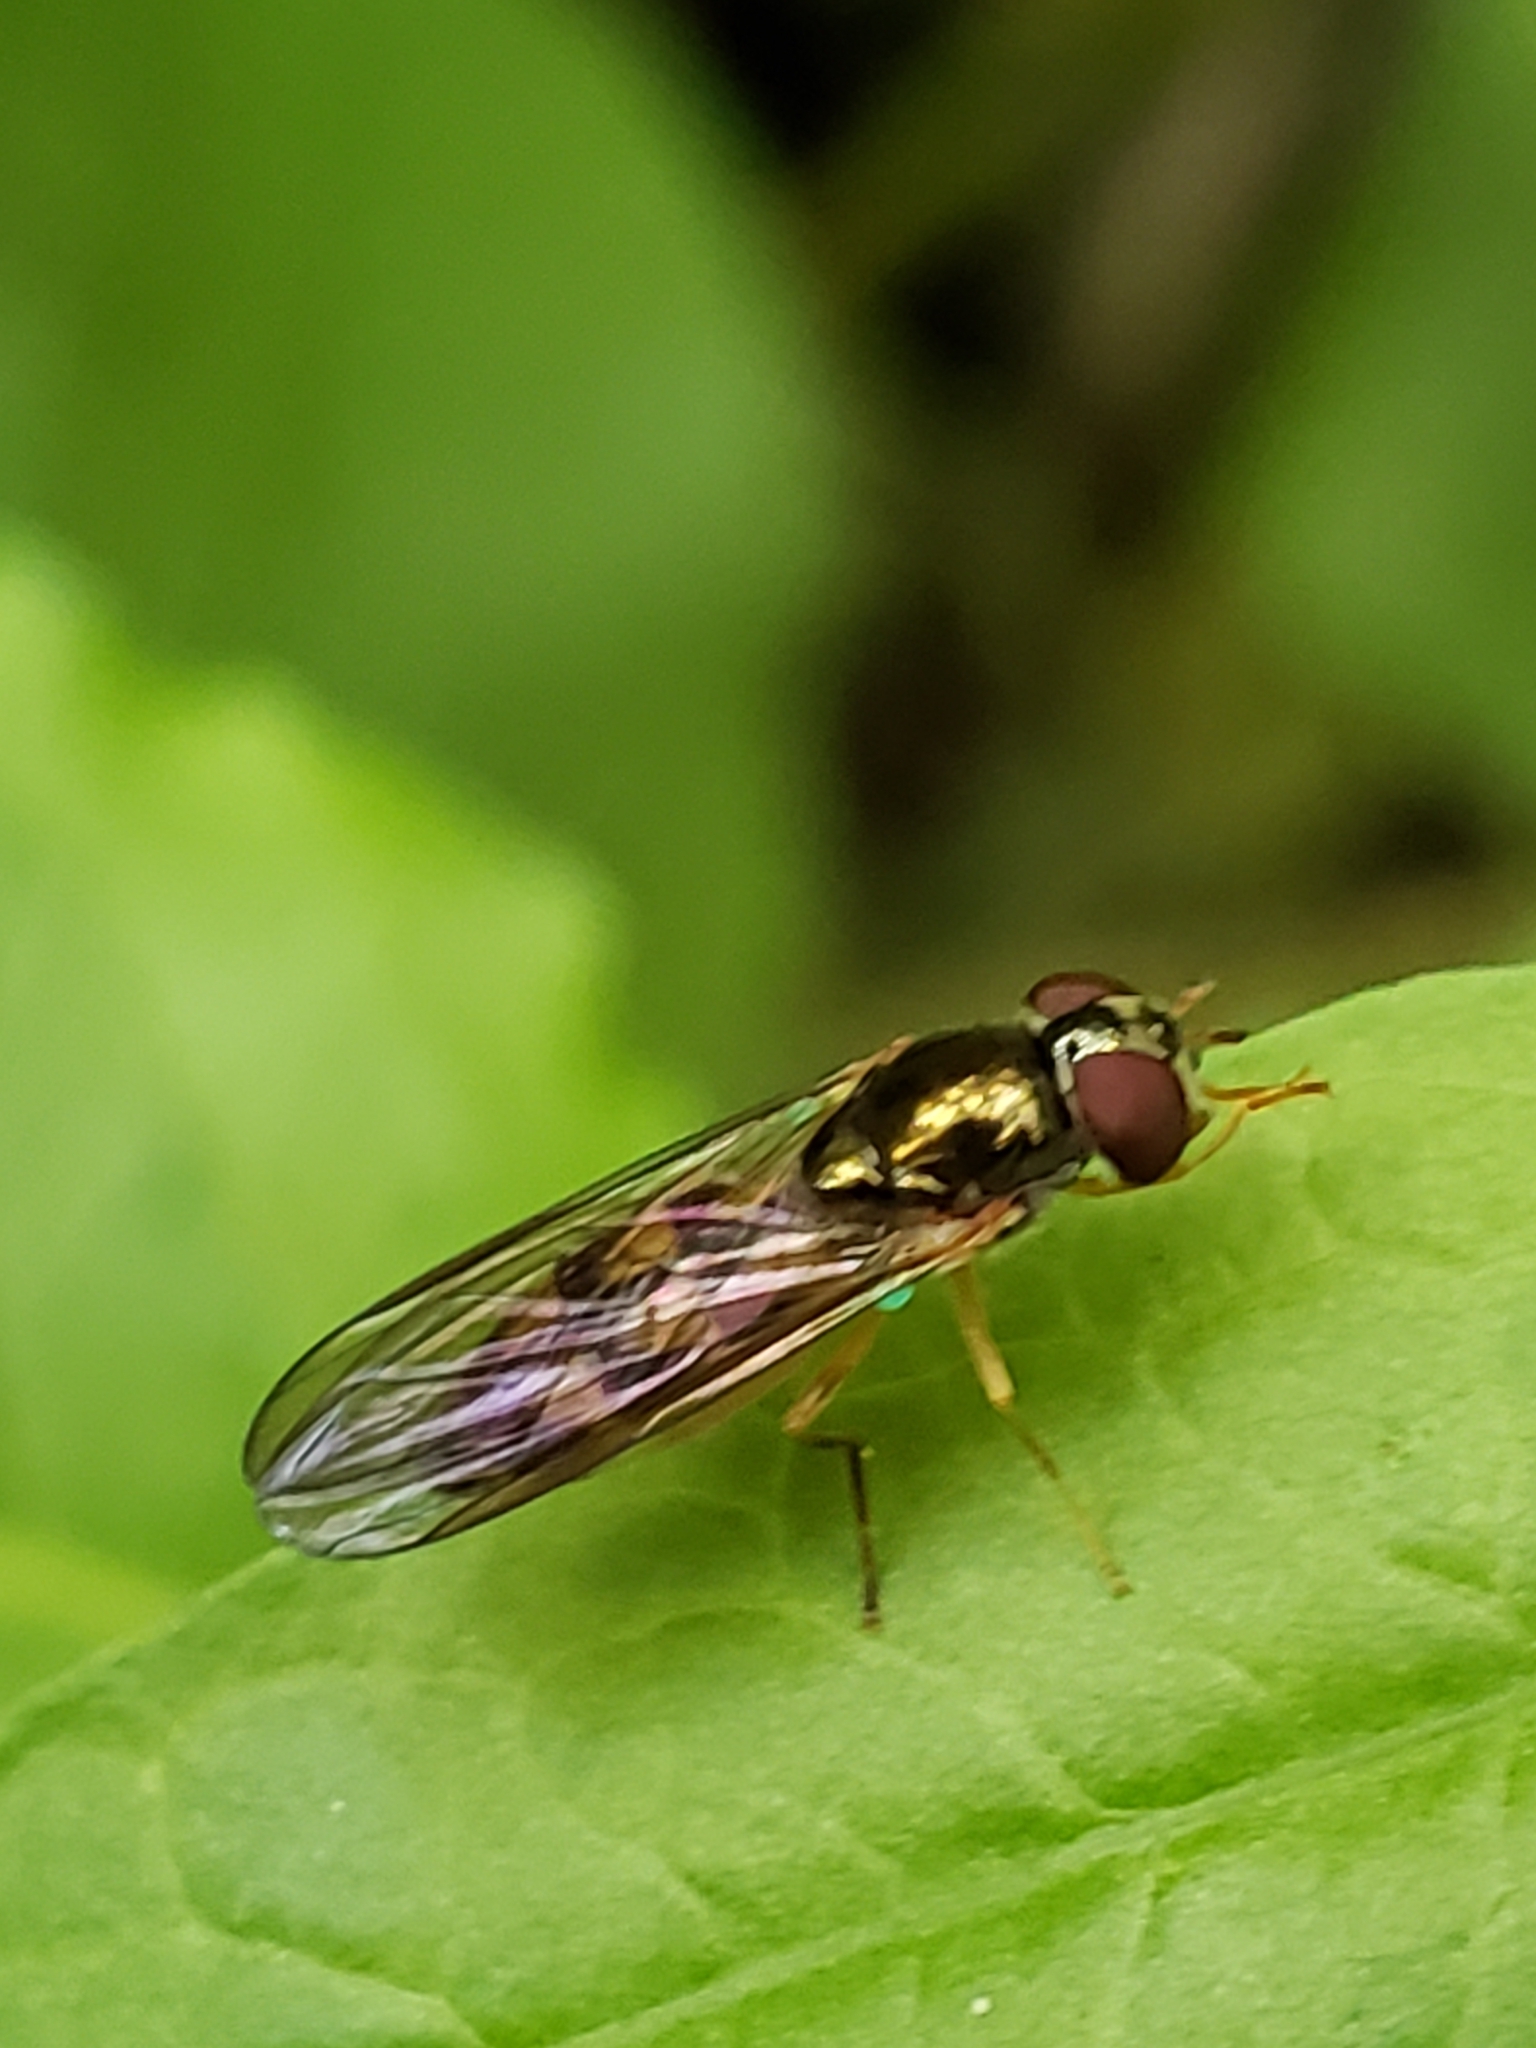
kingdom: Animalia
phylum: Arthropoda
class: Insecta
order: Diptera
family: Syrphidae
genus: Melanostoma
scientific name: Melanostoma mellina
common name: Hover fly
